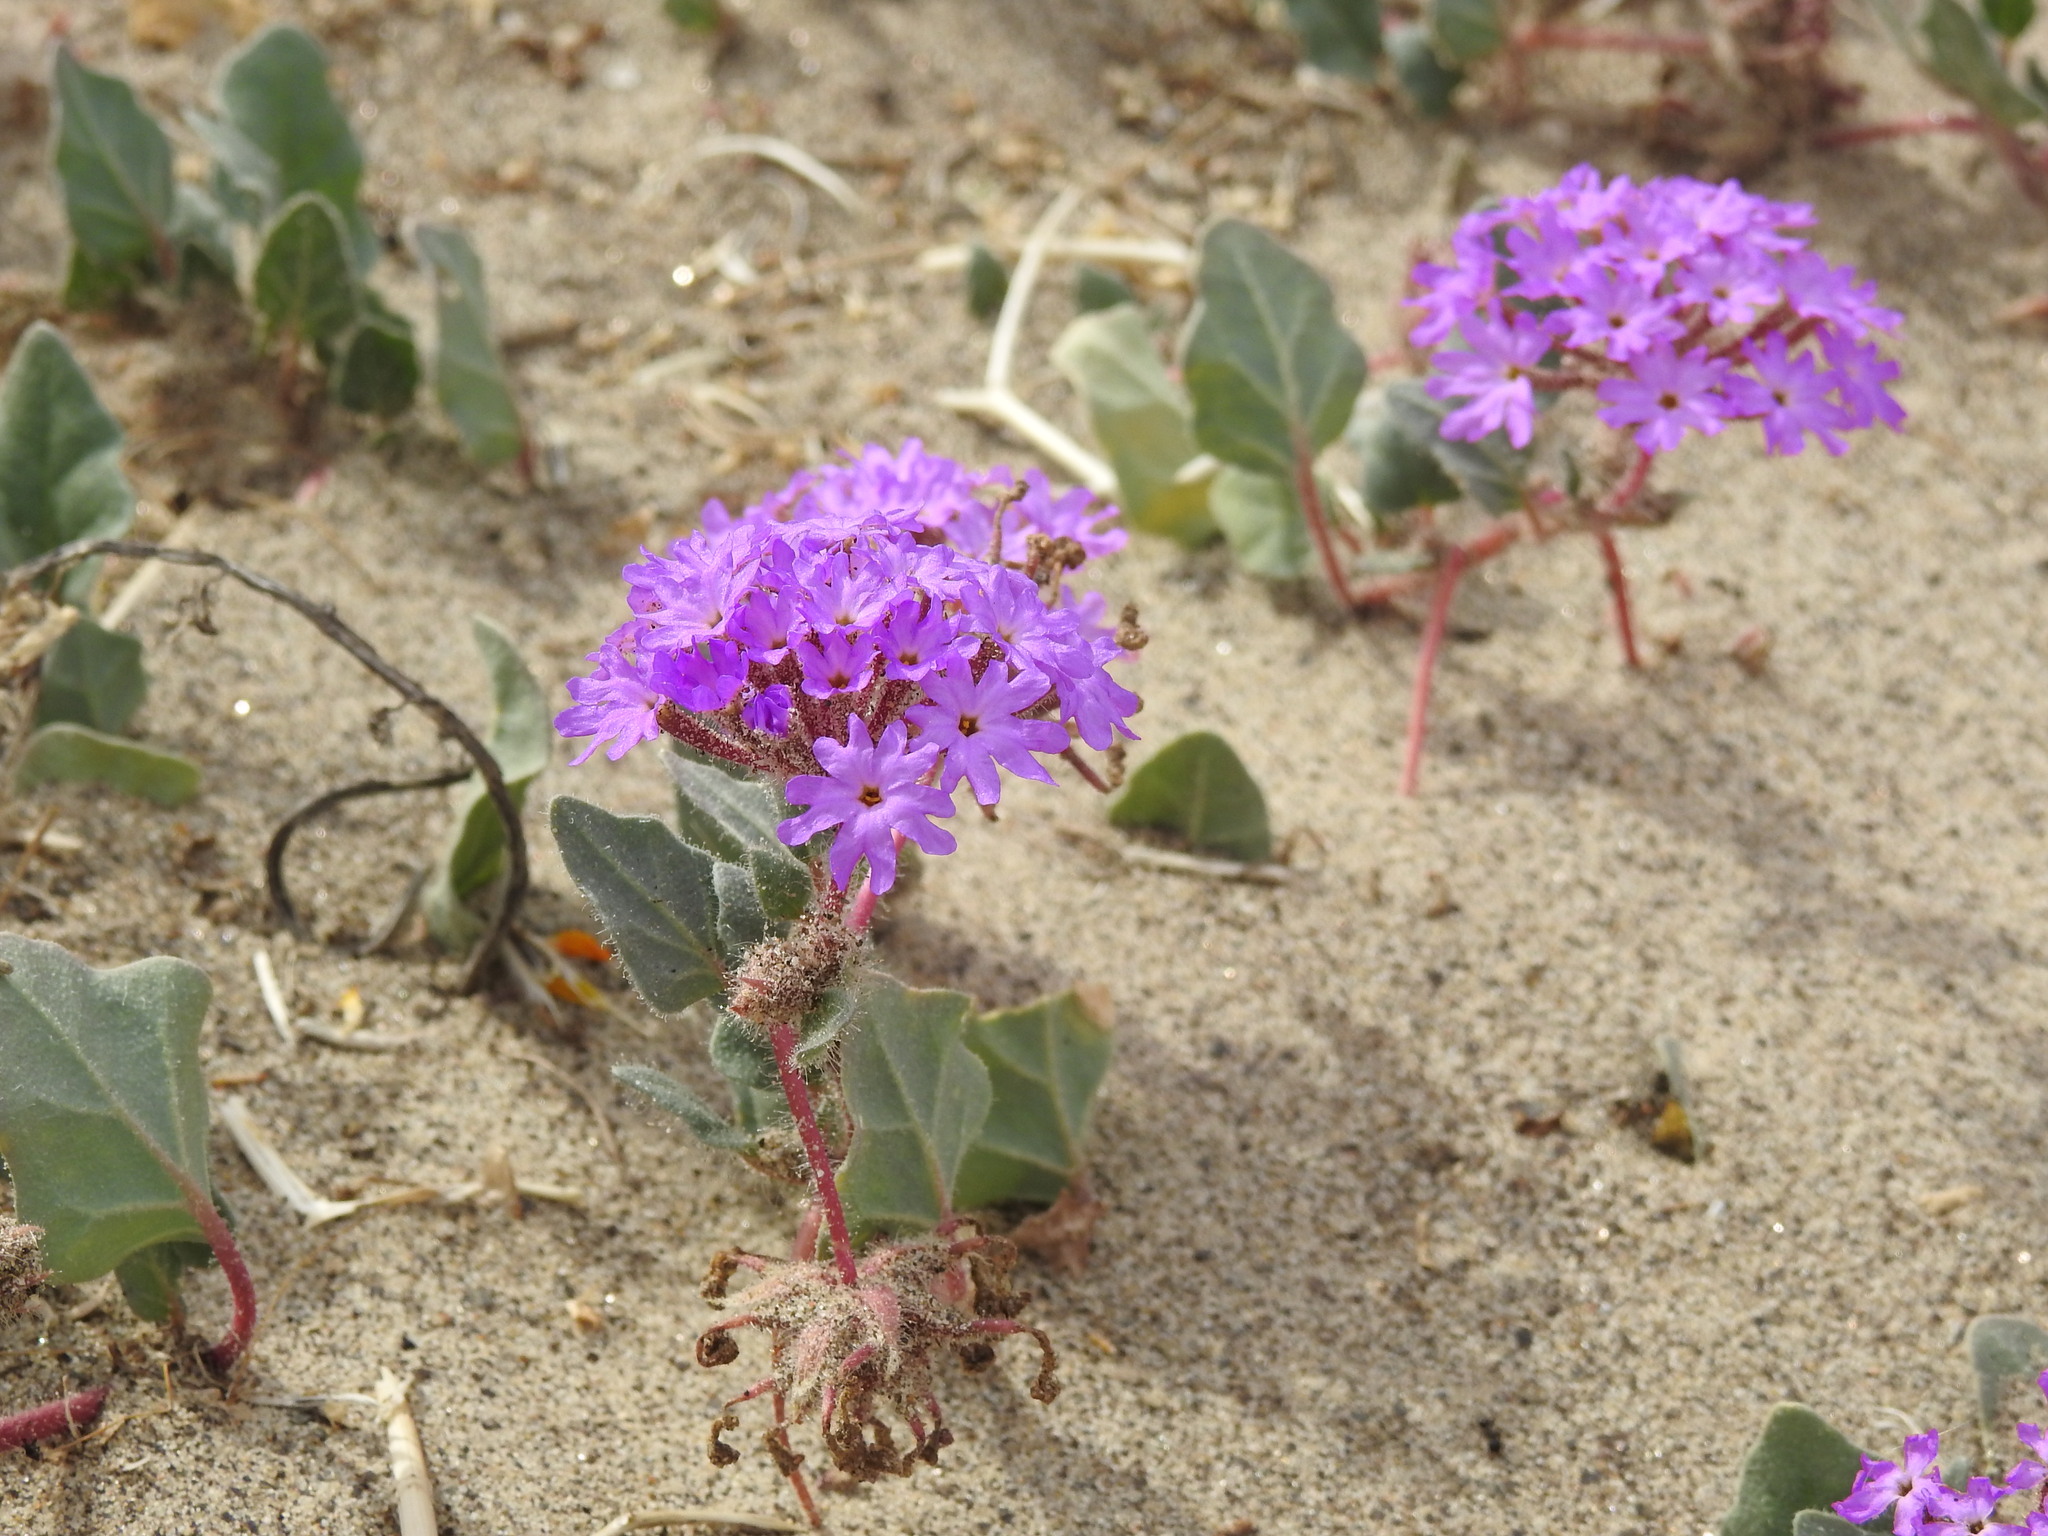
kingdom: Plantae
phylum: Tracheophyta
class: Magnoliopsida
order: Caryophyllales
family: Nyctaginaceae
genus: Abronia
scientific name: Abronia villosa
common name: Desert sand-verbena
